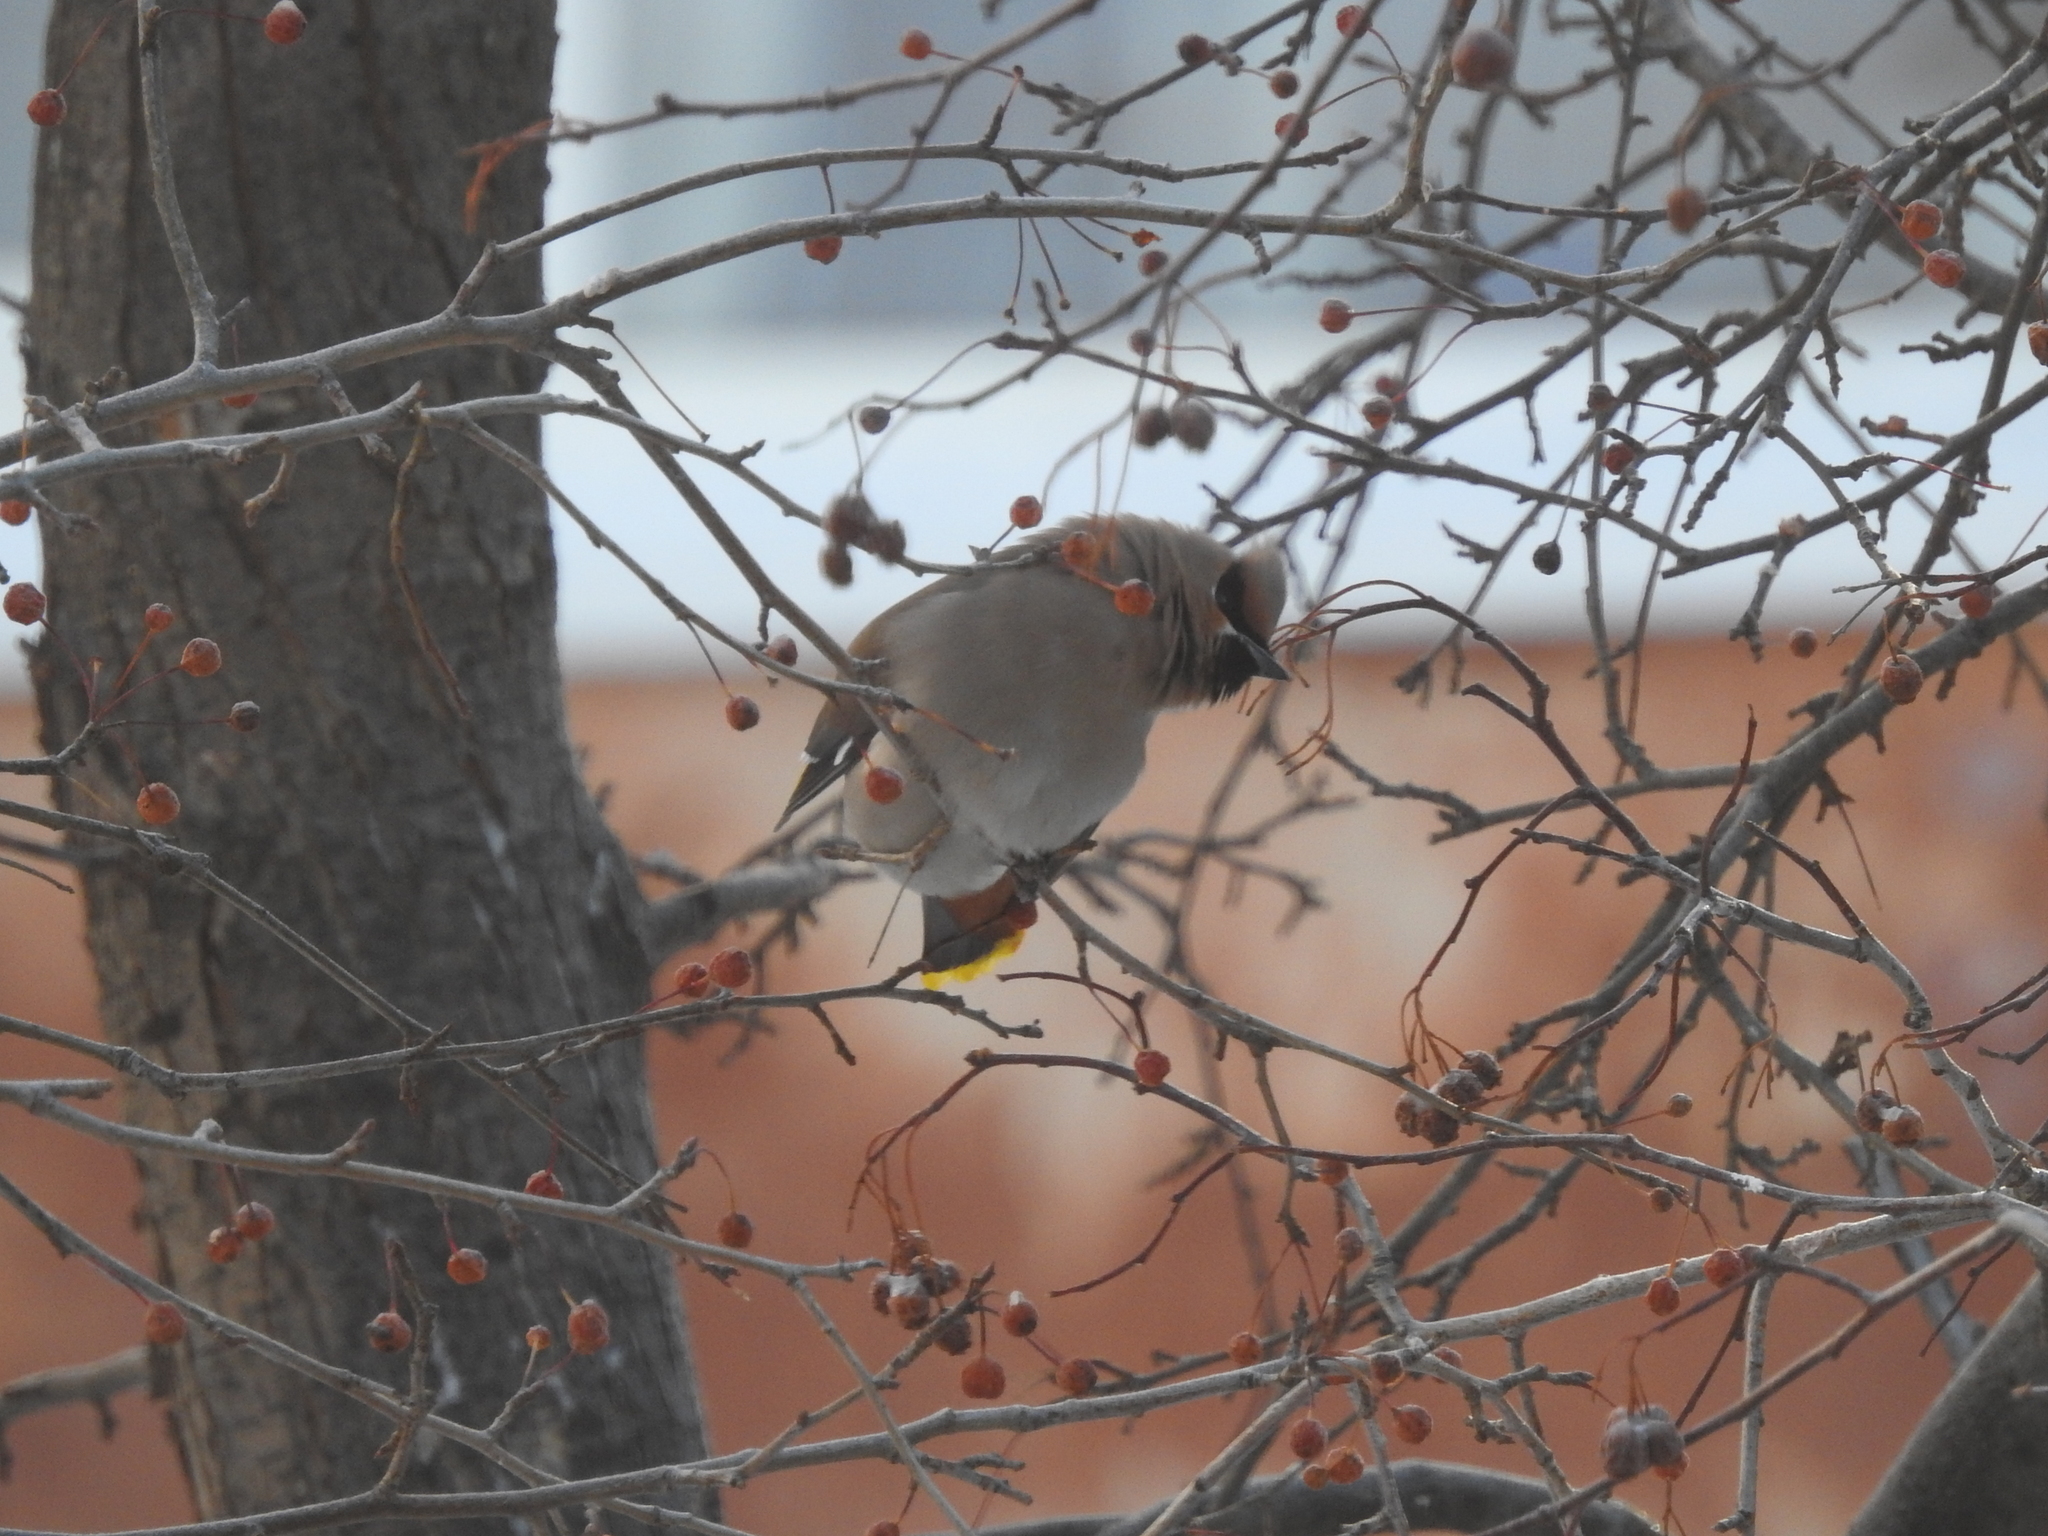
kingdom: Animalia
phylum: Chordata
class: Aves
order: Passeriformes
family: Bombycillidae
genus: Bombycilla
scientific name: Bombycilla garrulus
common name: Bohemian waxwing
